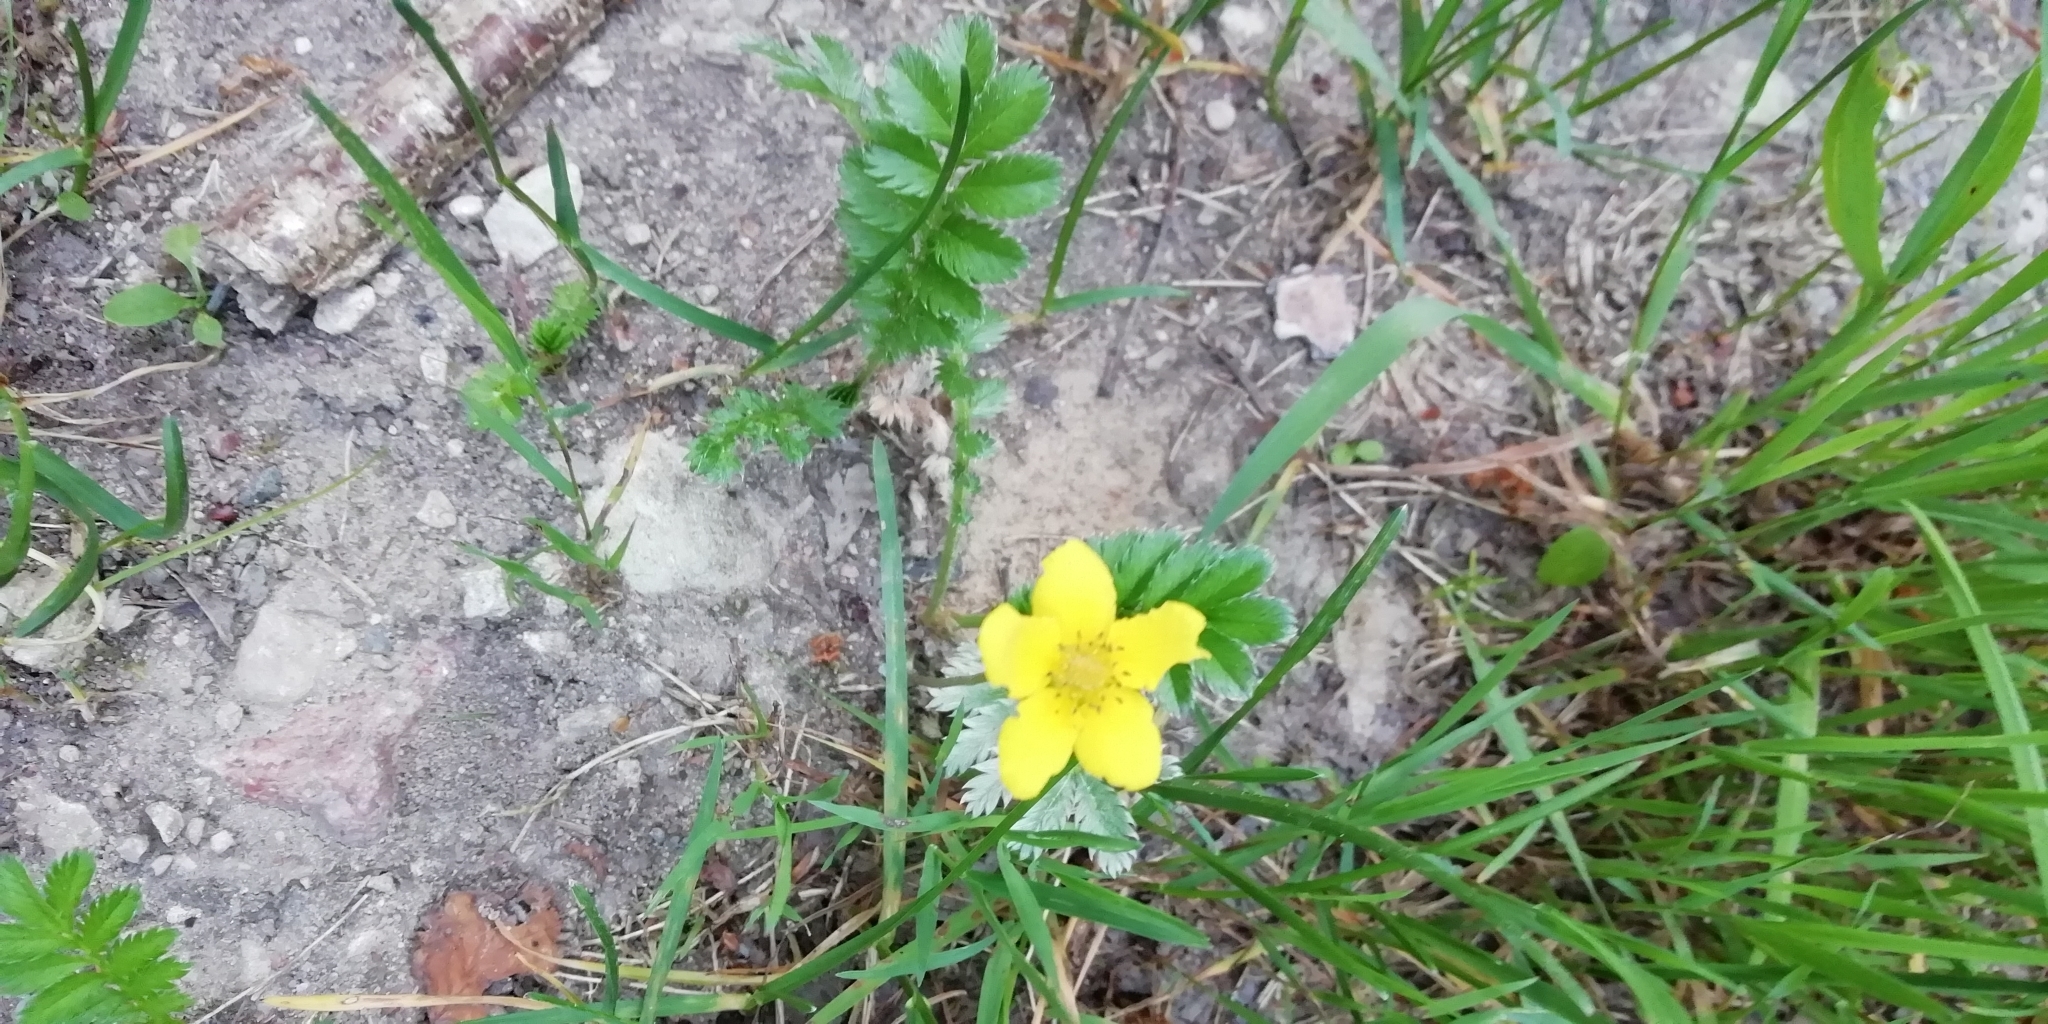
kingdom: Plantae
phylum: Tracheophyta
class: Magnoliopsida
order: Rosales
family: Rosaceae
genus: Argentina
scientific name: Argentina anserina
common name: Common silverweed
